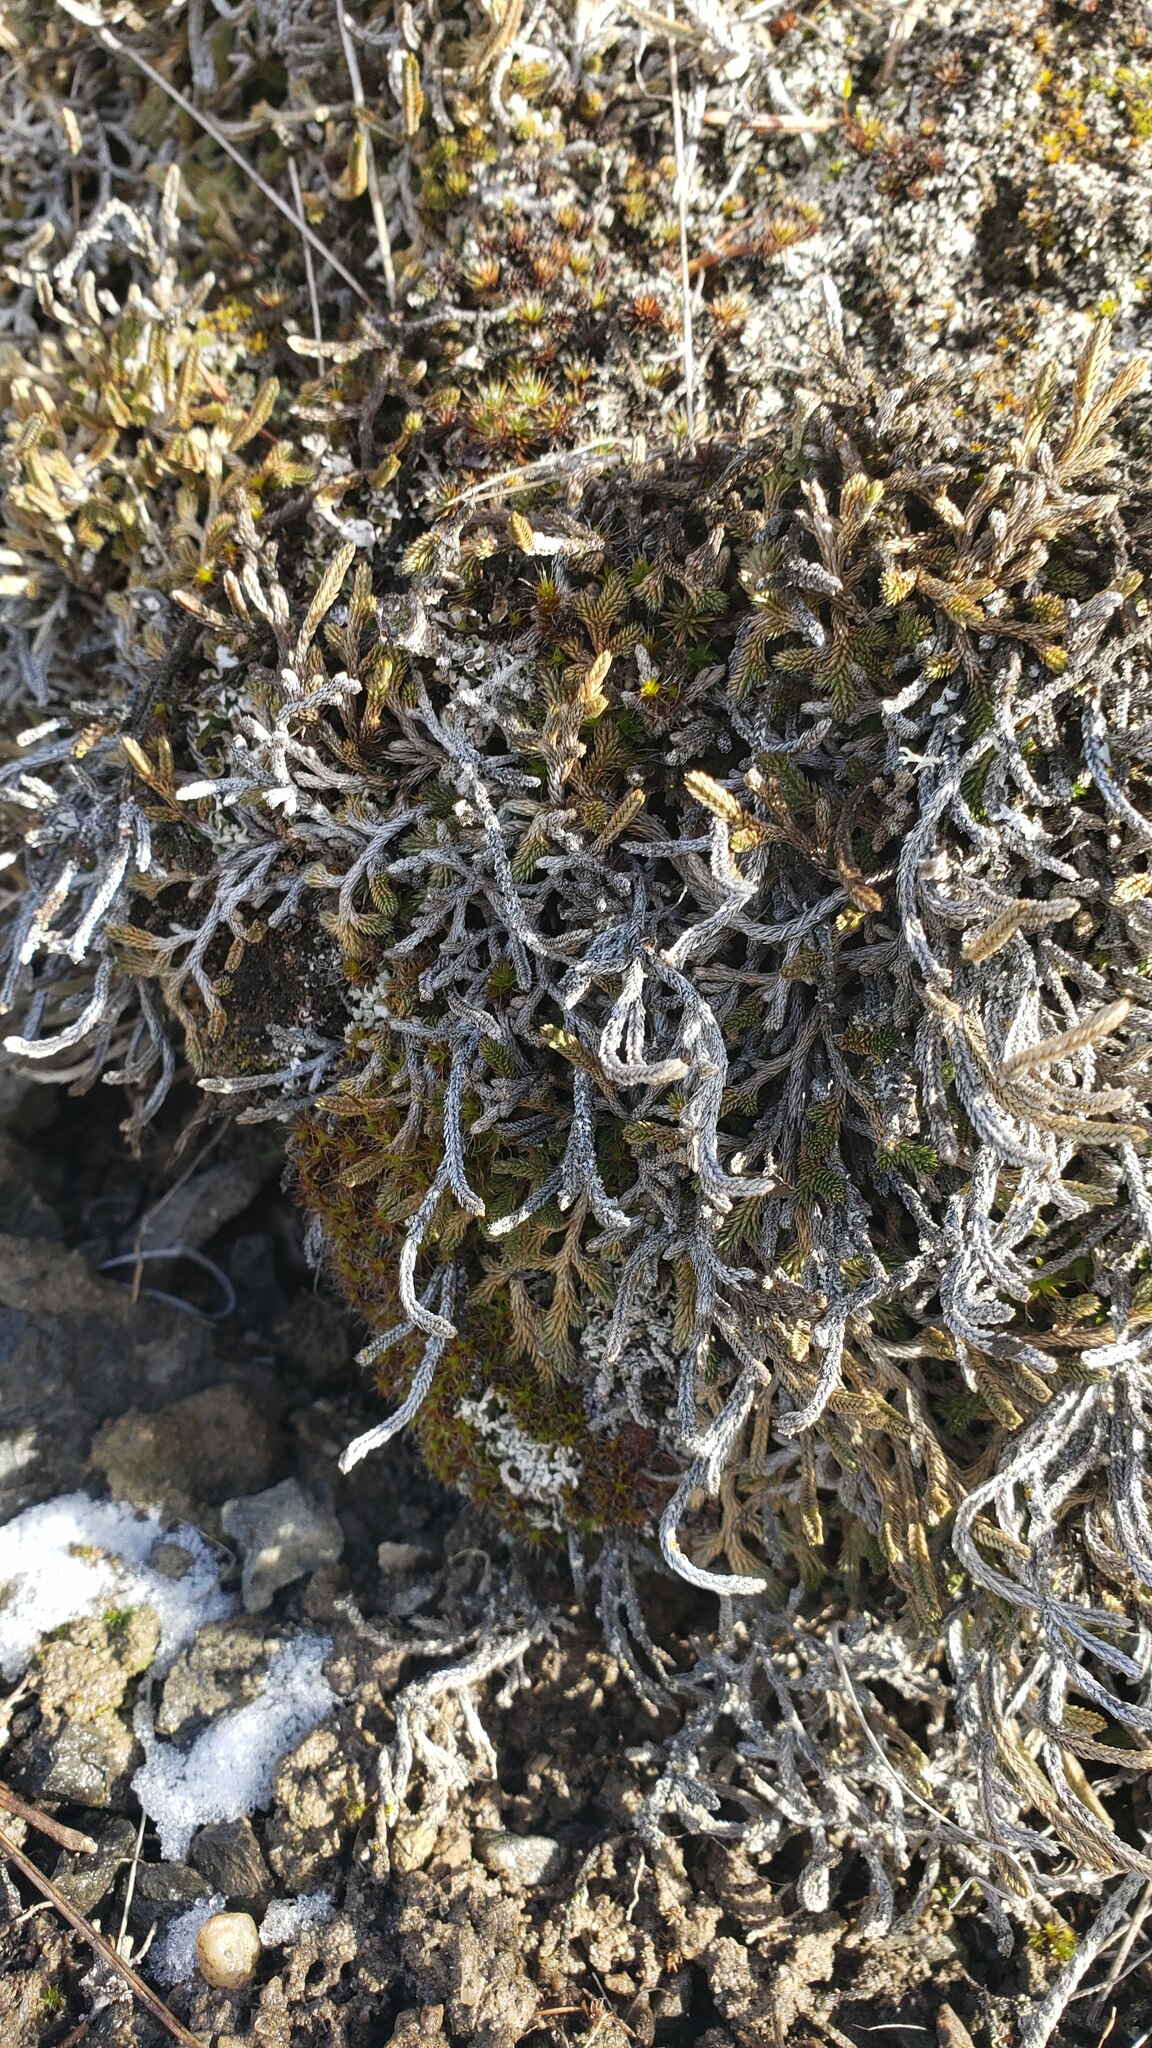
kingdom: Plantae
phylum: Tracheophyta
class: Lycopodiopsida
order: Selaginellales
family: Selaginellaceae
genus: Selaginella
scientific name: Selaginella wallacei
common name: Wallace's selaginella
